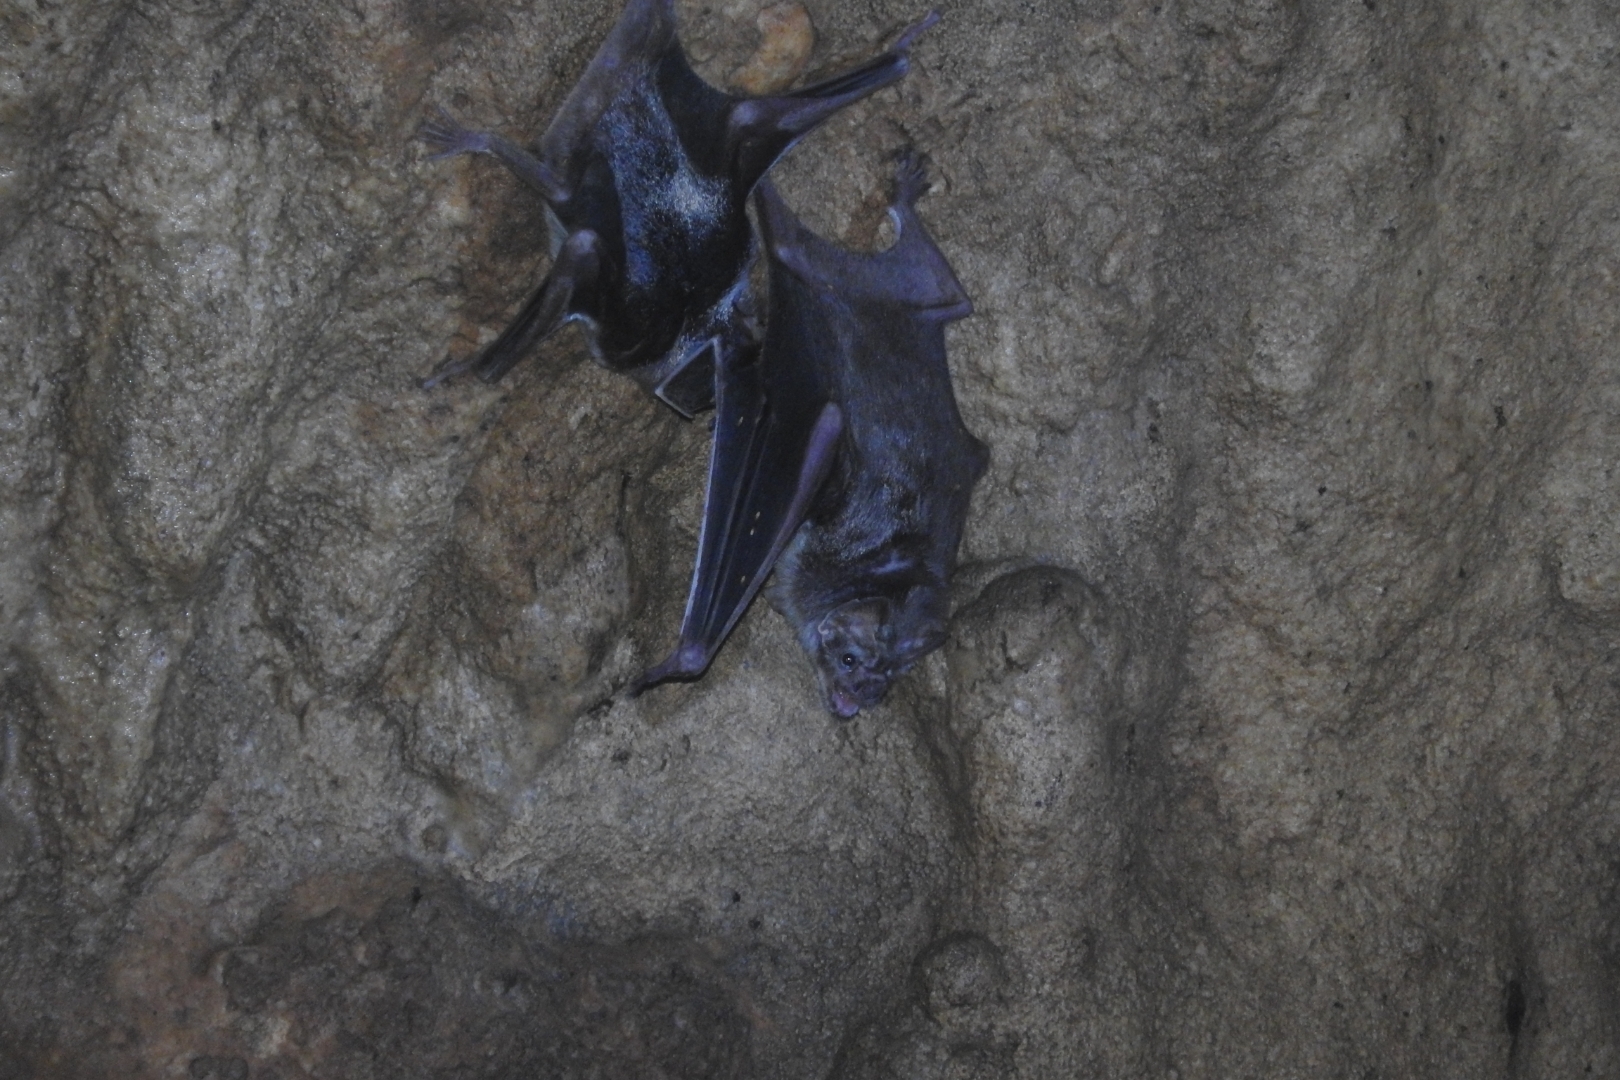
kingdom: Animalia
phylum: Chordata
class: Mammalia
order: Chiroptera
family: Phyllostomidae
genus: Desmodus
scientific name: Desmodus rotundus
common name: Common vampire bat
